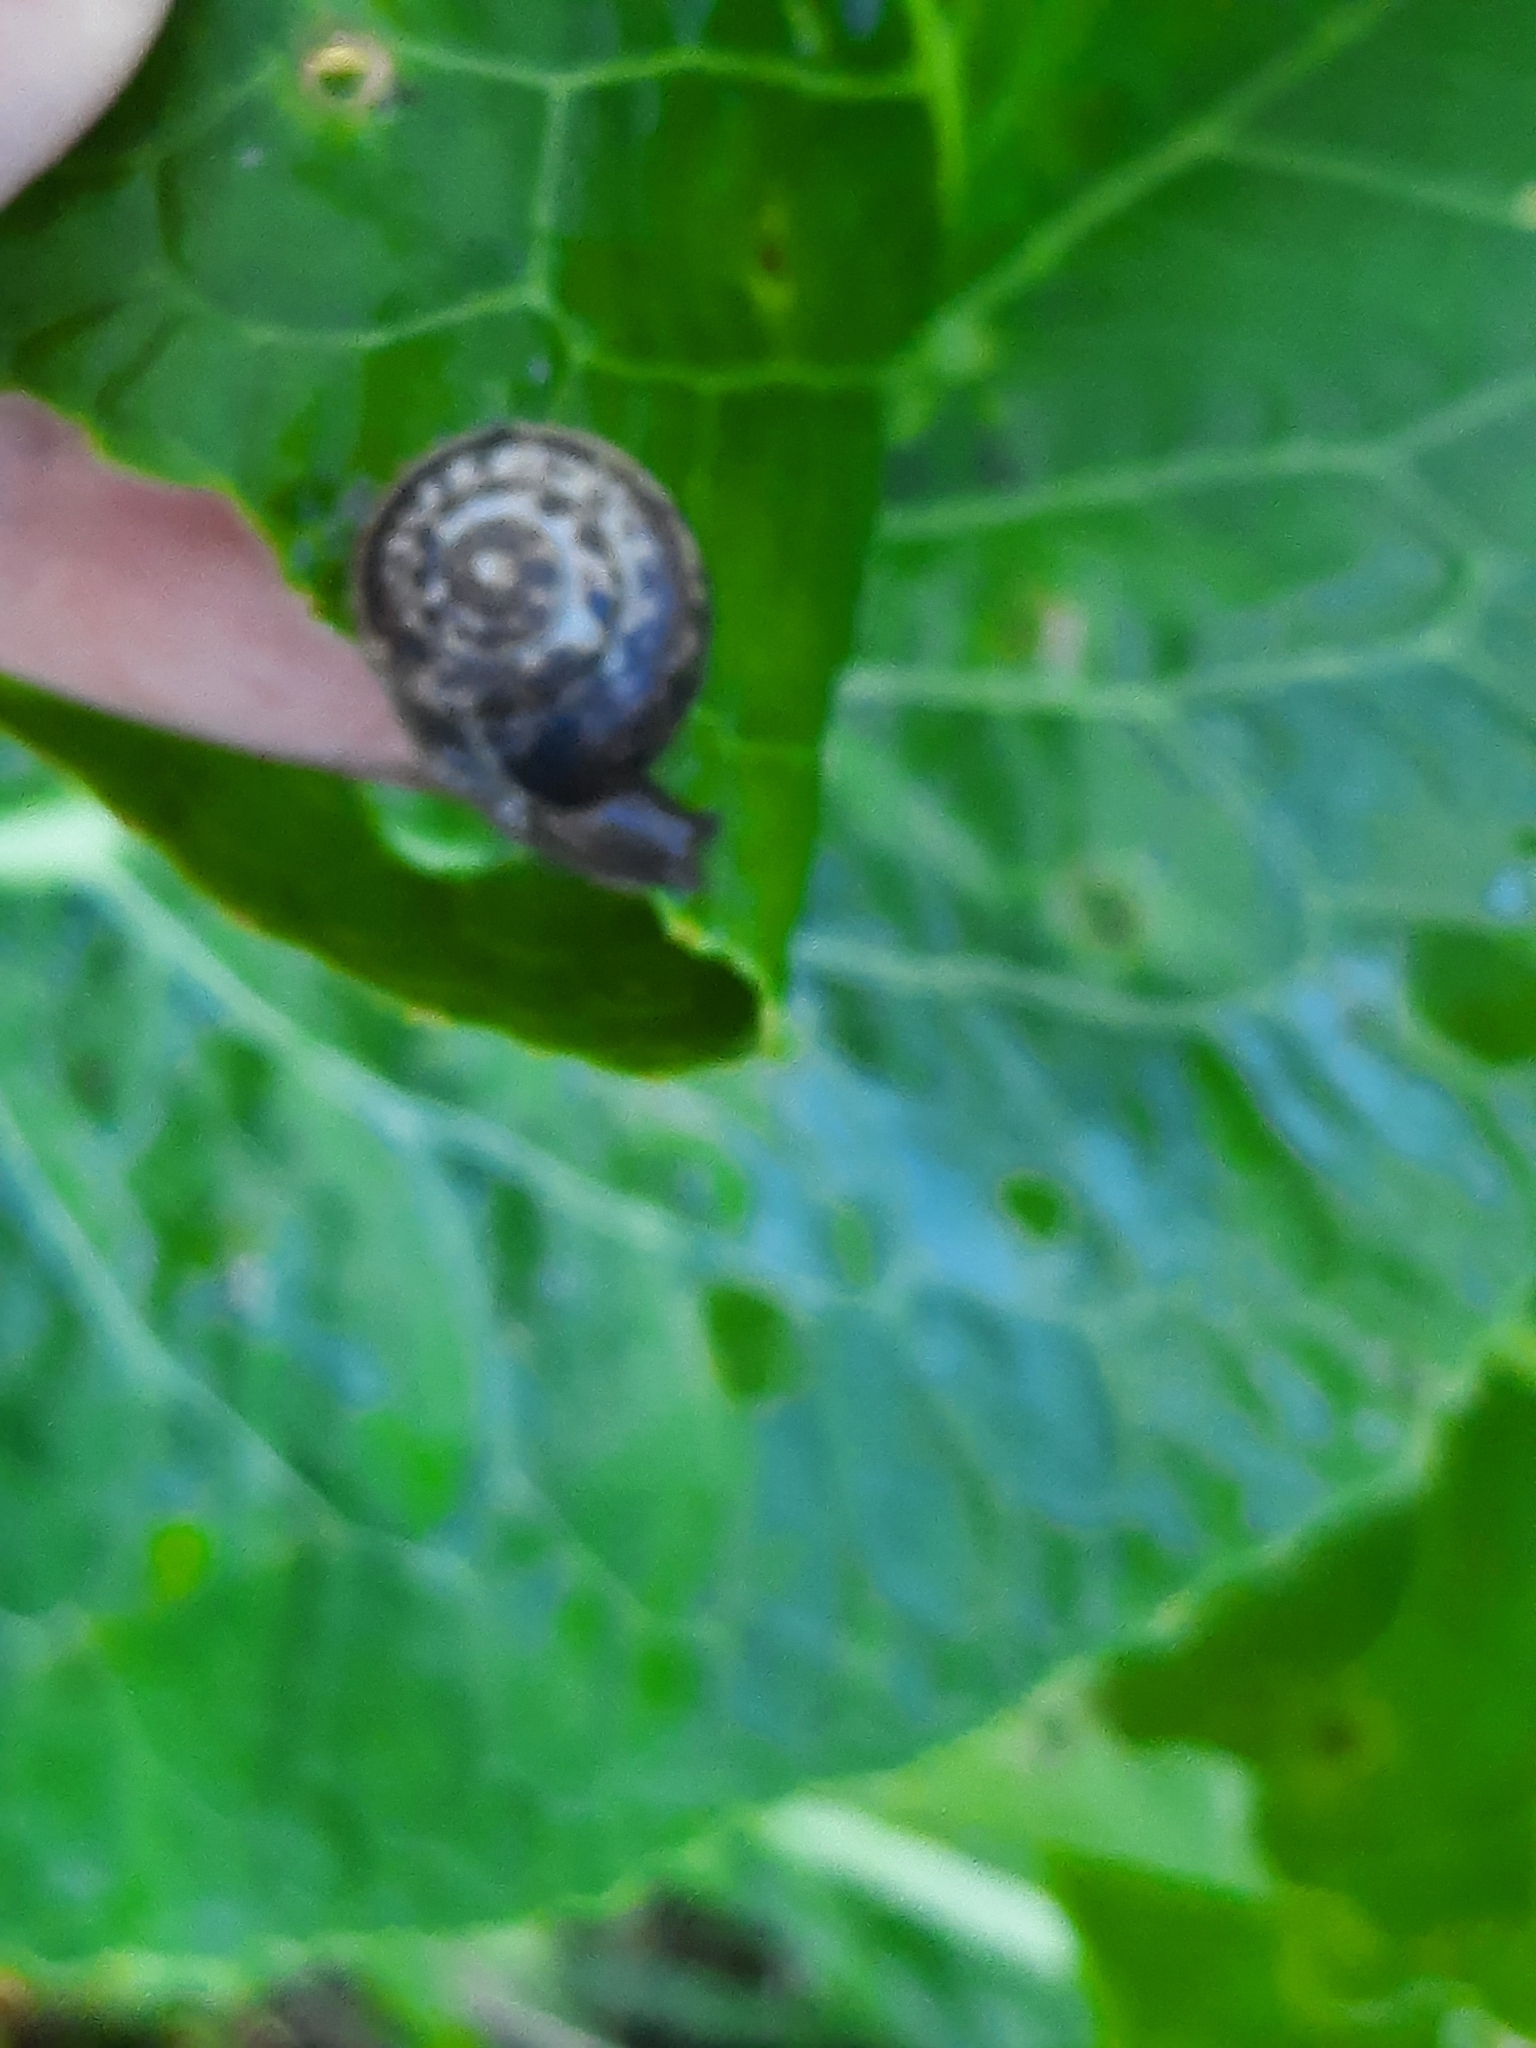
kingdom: Animalia
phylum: Mollusca
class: Gastropoda
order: Stylommatophora
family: Hygromiidae
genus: Monacha
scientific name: Monacha cantiana
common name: Kentish snail
